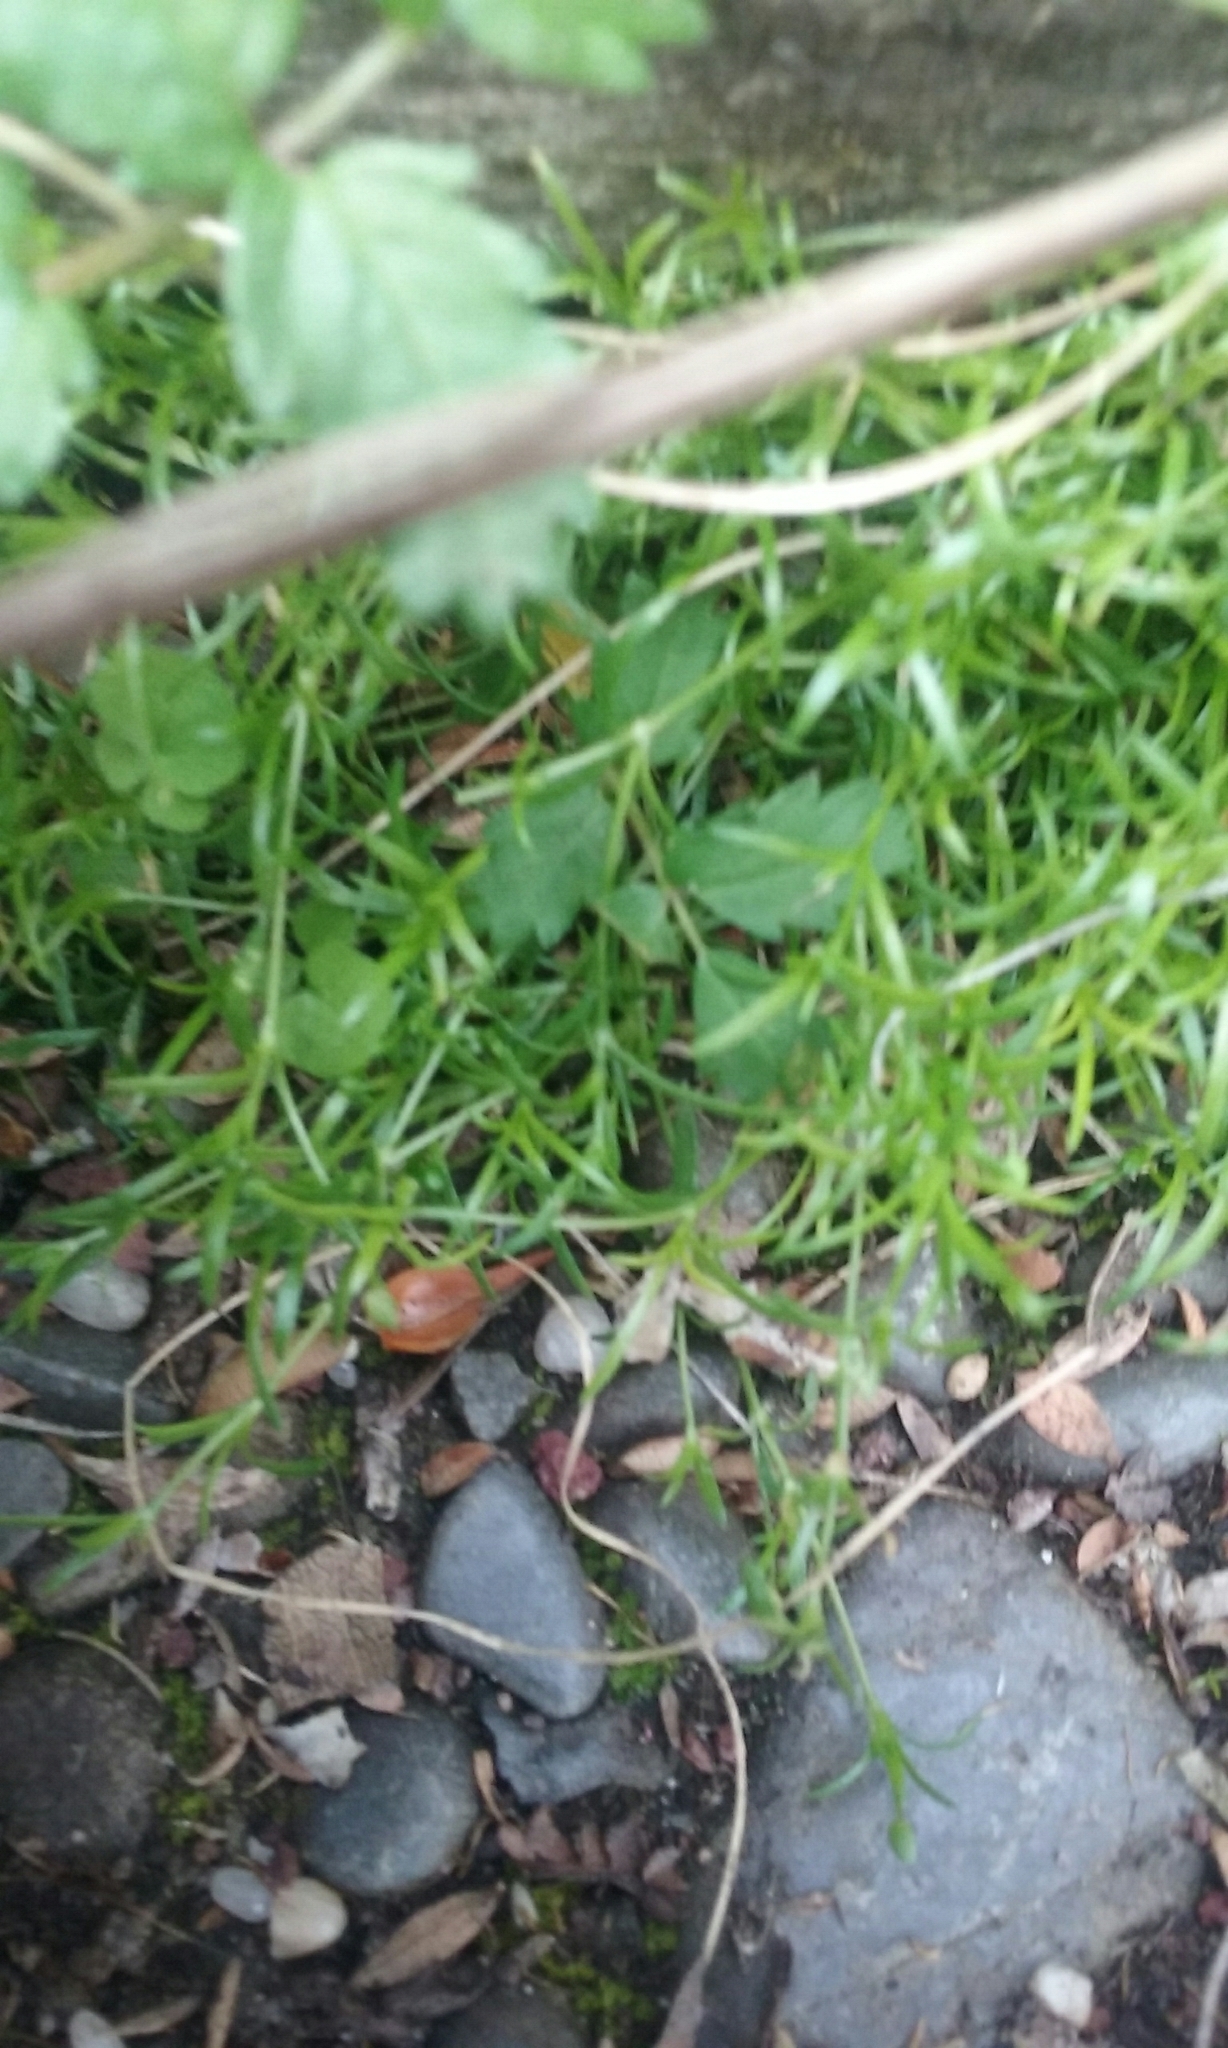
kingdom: Plantae
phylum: Tracheophyta
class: Magnoliopsida
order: Caryophyllales
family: Caryophyllaceae
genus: Sagina
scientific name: Sagina procumbens
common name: Procumbent pearlwort
